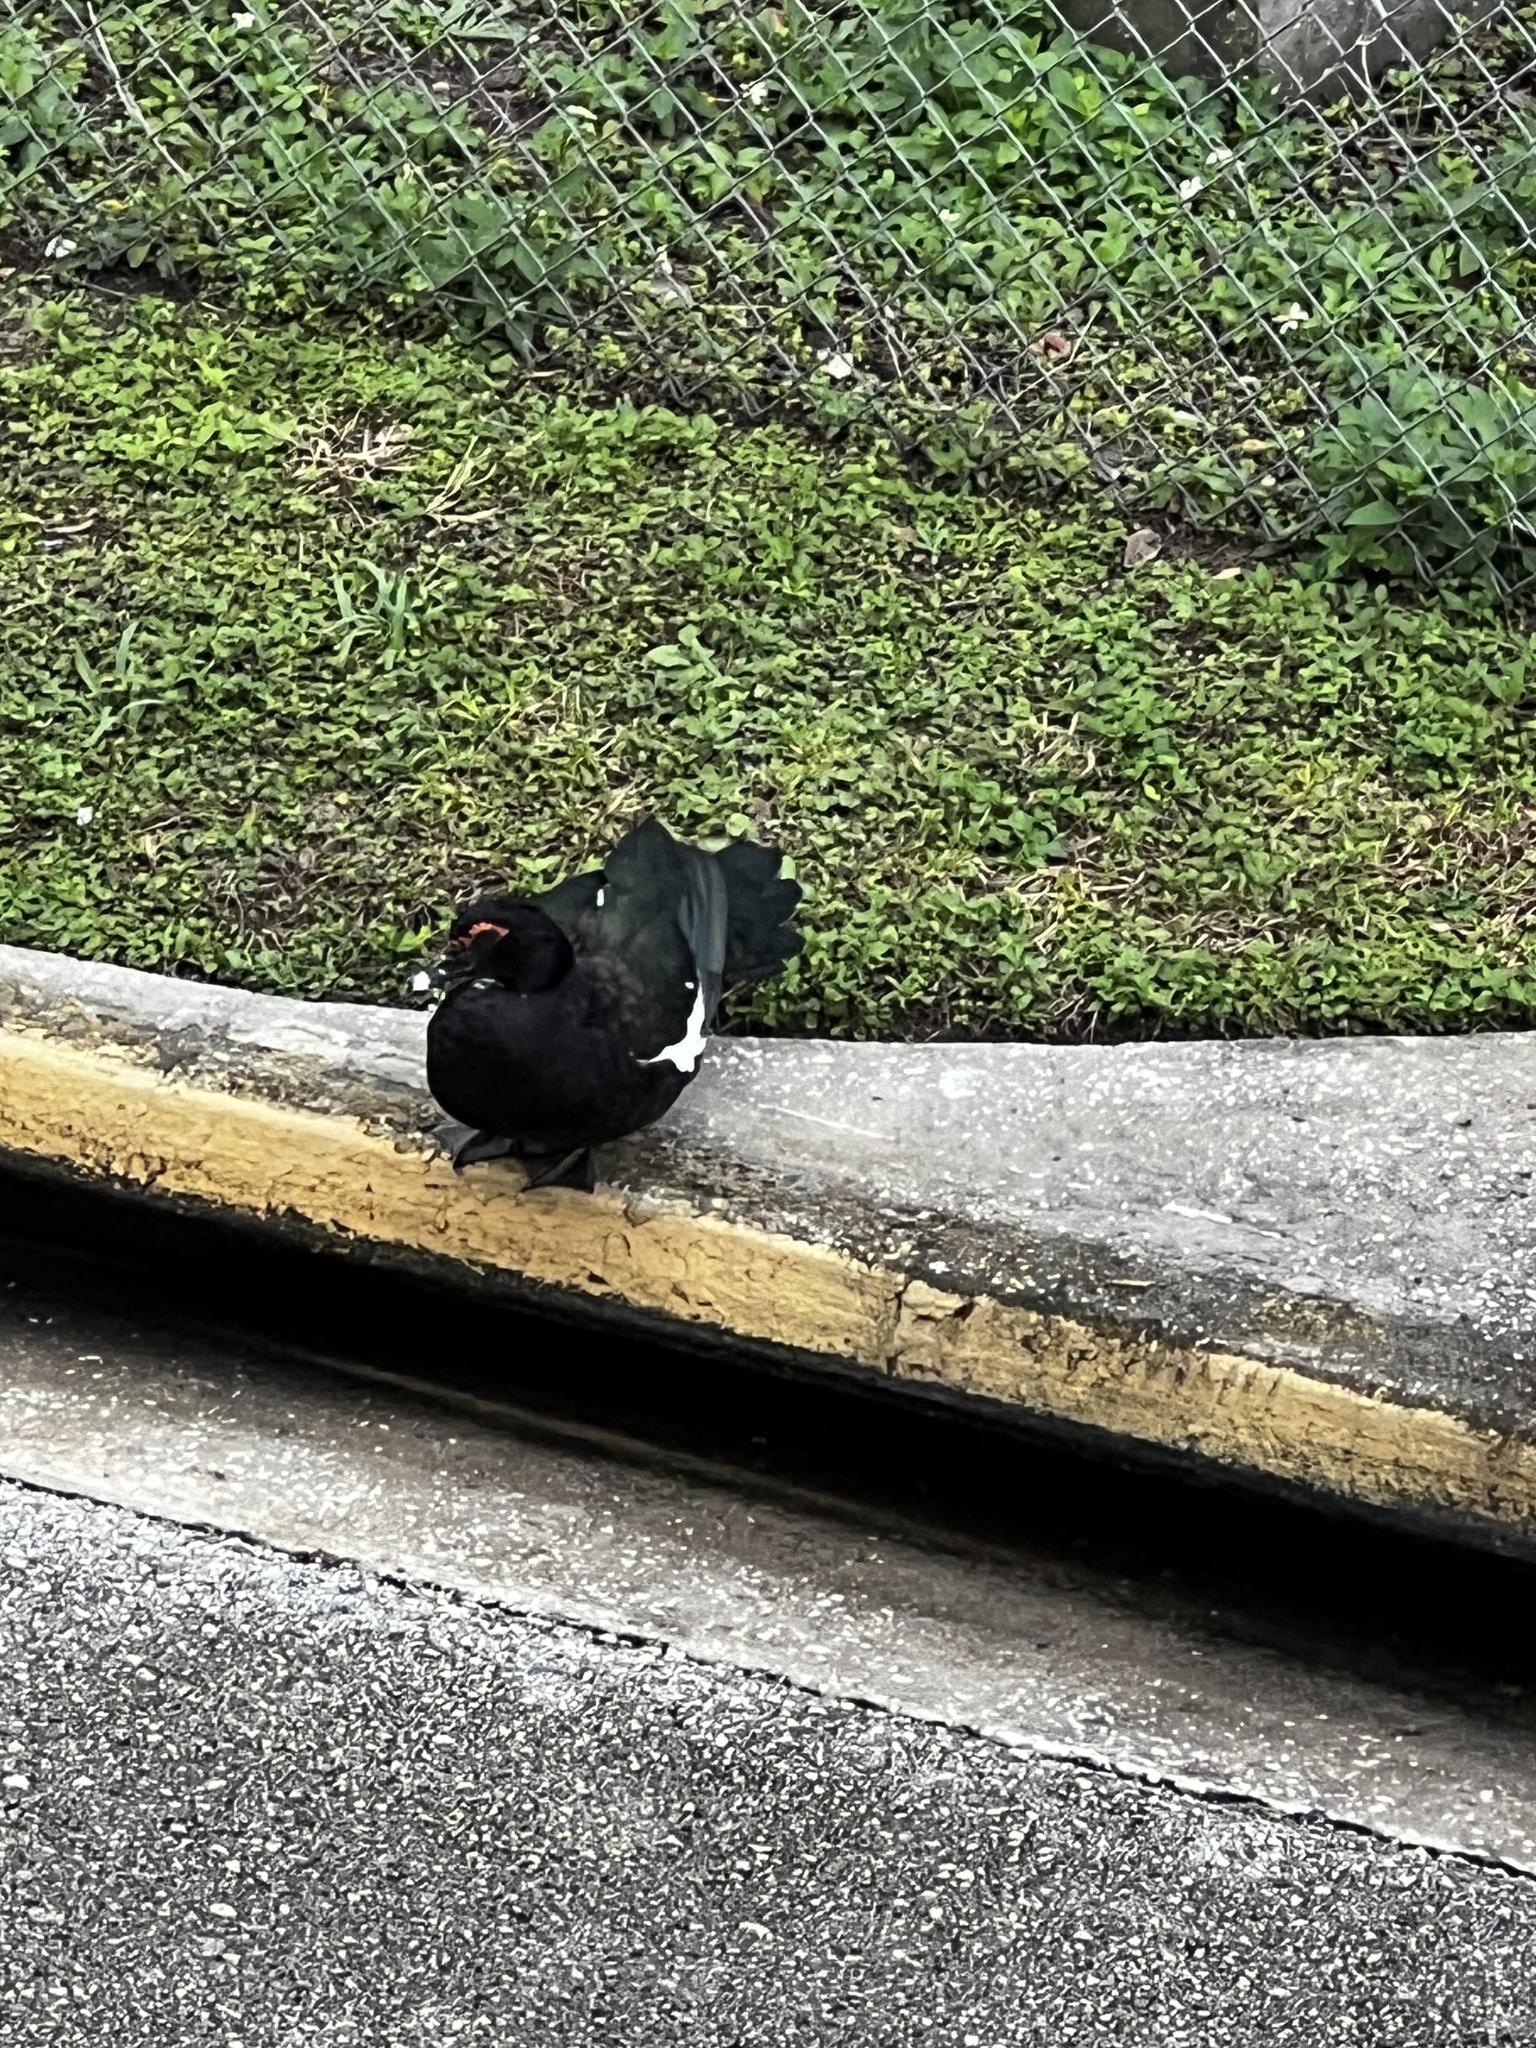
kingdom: Animalia
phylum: Chordata
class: Aves
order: Anseriformes
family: Anatidae
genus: Cairina
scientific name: Cairina moschata
